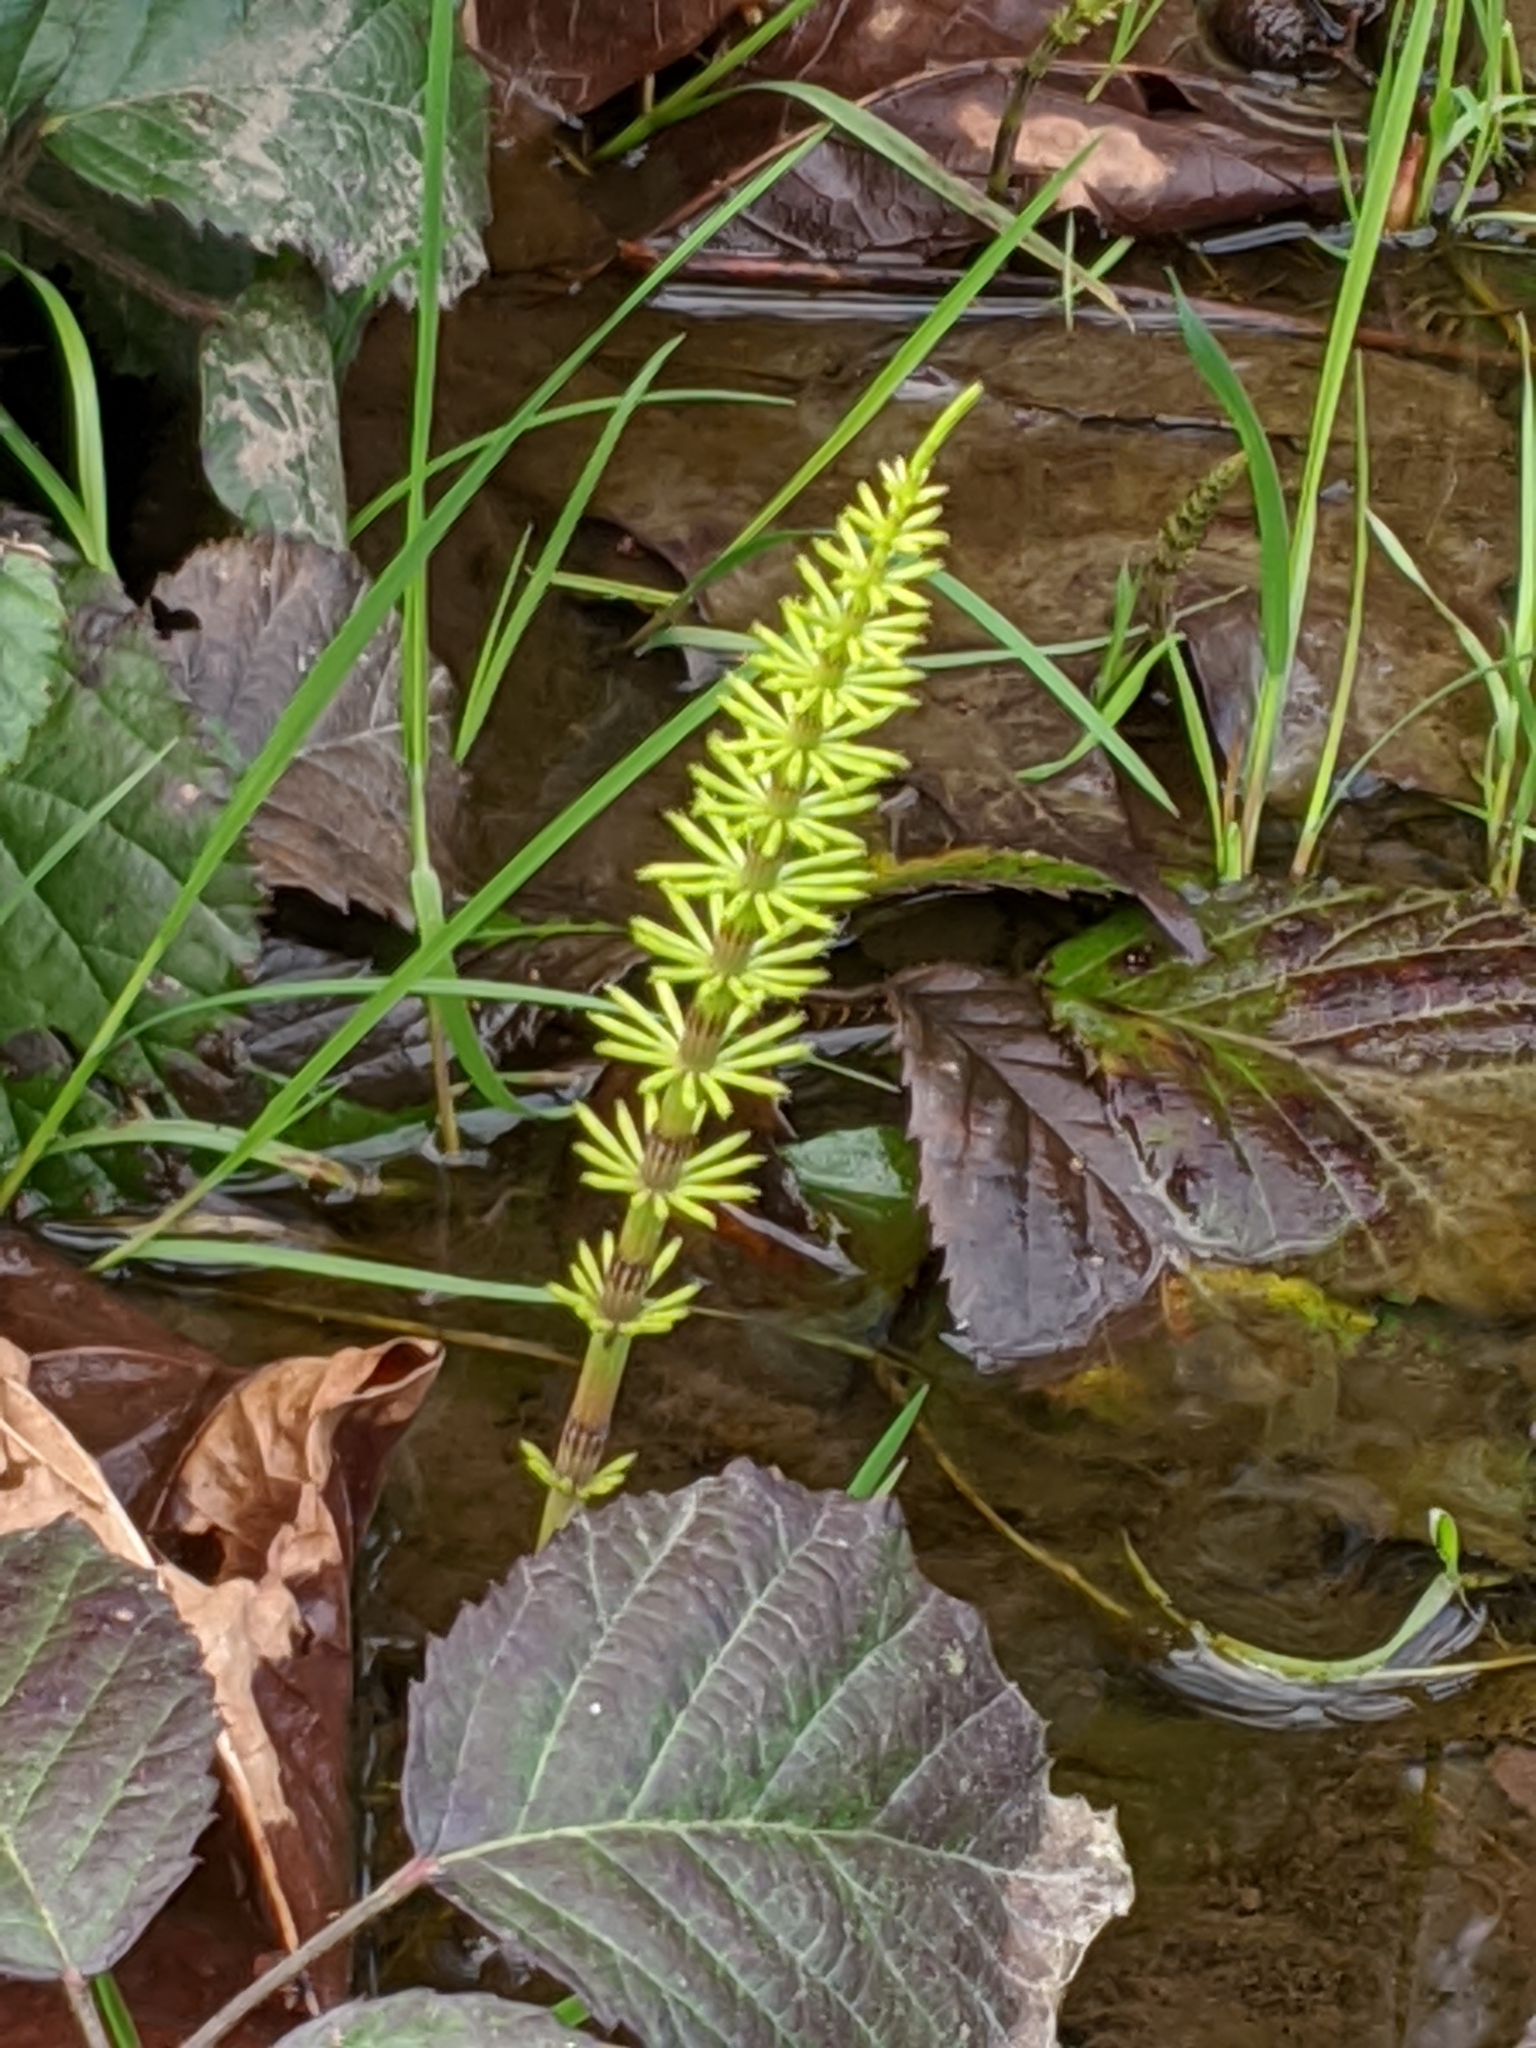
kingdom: Plantae
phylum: Tracheophyta
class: Polypodiopsida
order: Equisetales
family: Equisetaceae
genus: Equisetum
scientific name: Equisetum arvense
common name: Field horsetail
